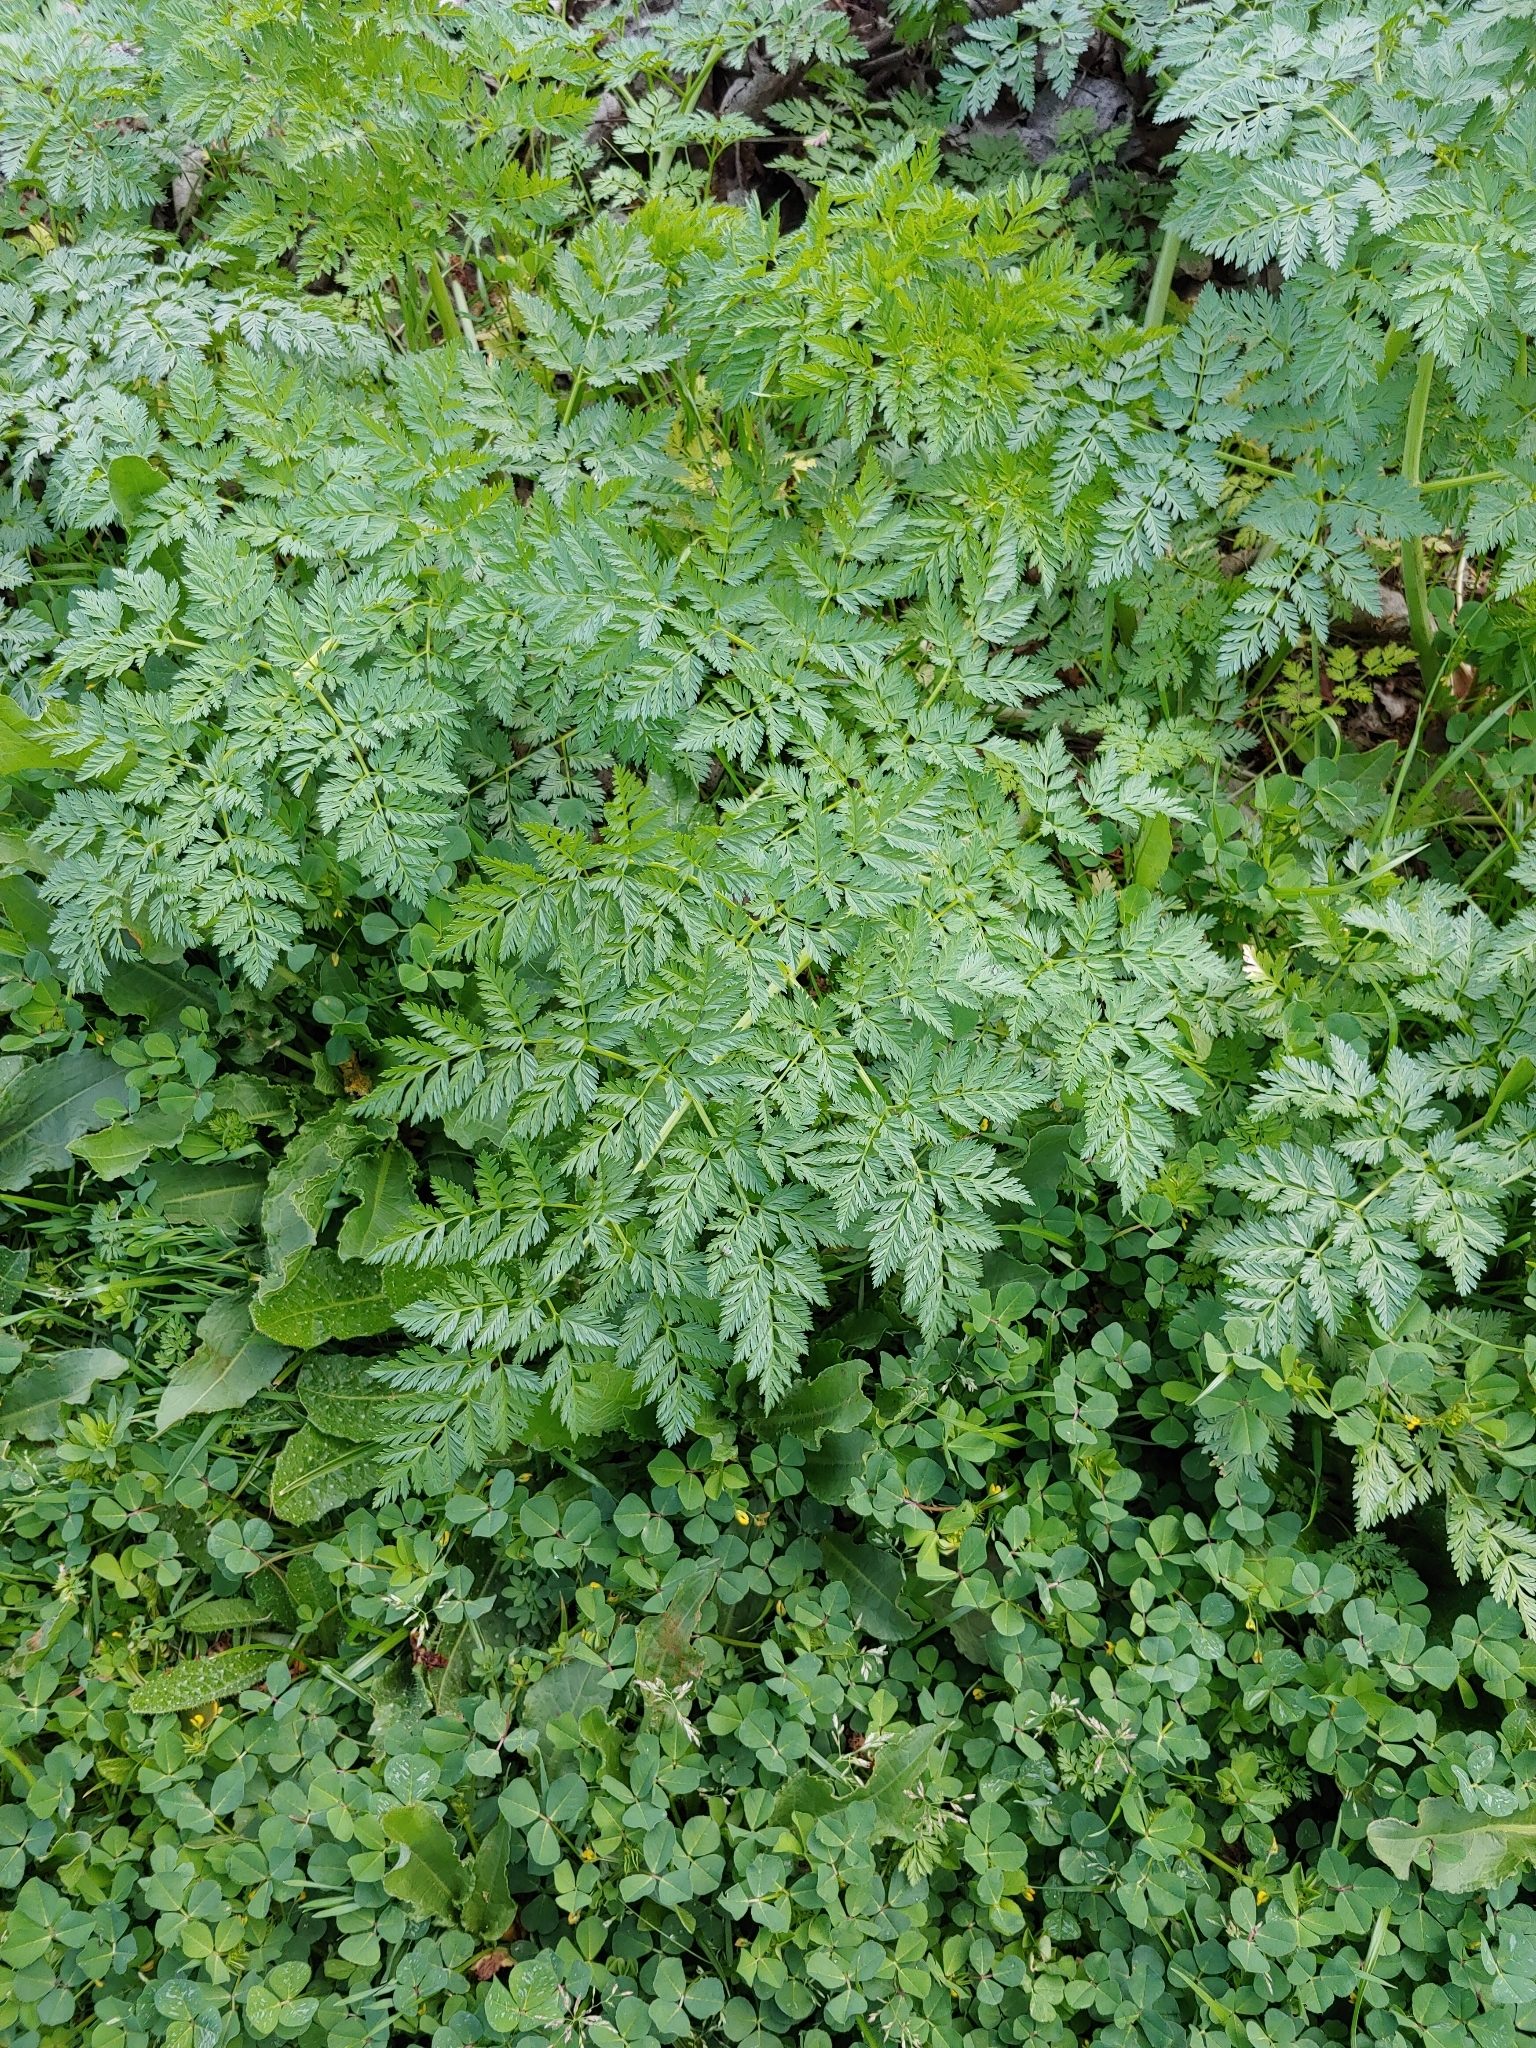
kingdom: Plantae
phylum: Tracheophyta
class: Magnoliopsida
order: Apiales
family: Apiaceae
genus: Conium
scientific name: Conium maculatum
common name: Hemlock
